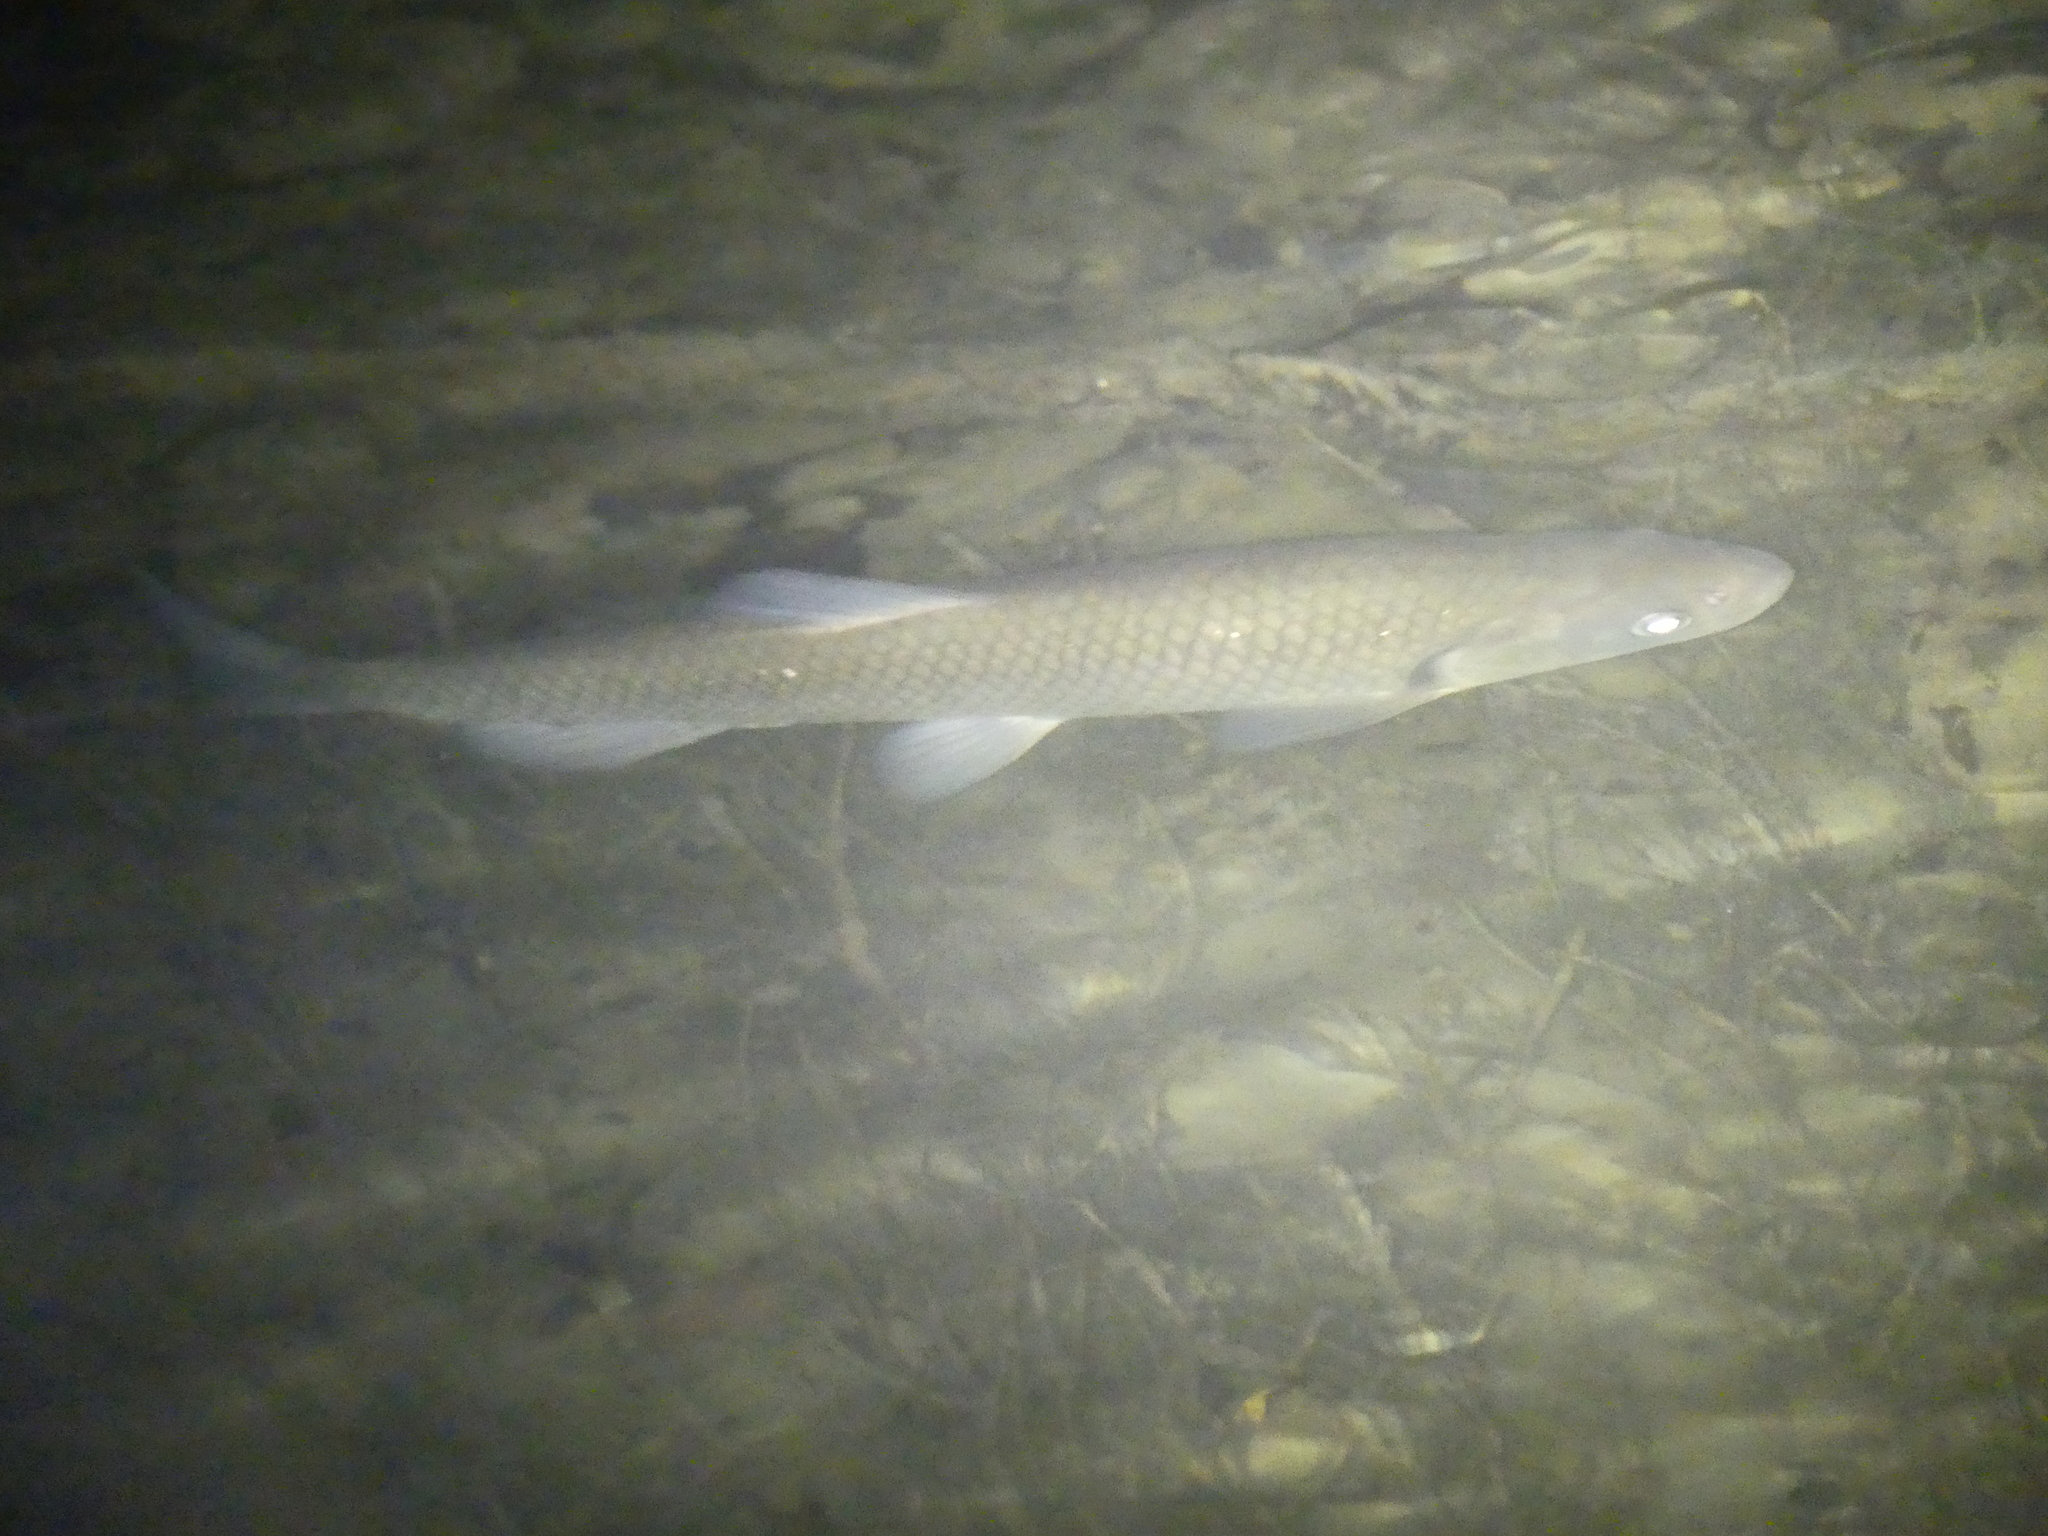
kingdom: Animalia
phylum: Chordata
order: Cypriniformes
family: Cyprinidae
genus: Squalius
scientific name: Squalius cephalus
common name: Chub
